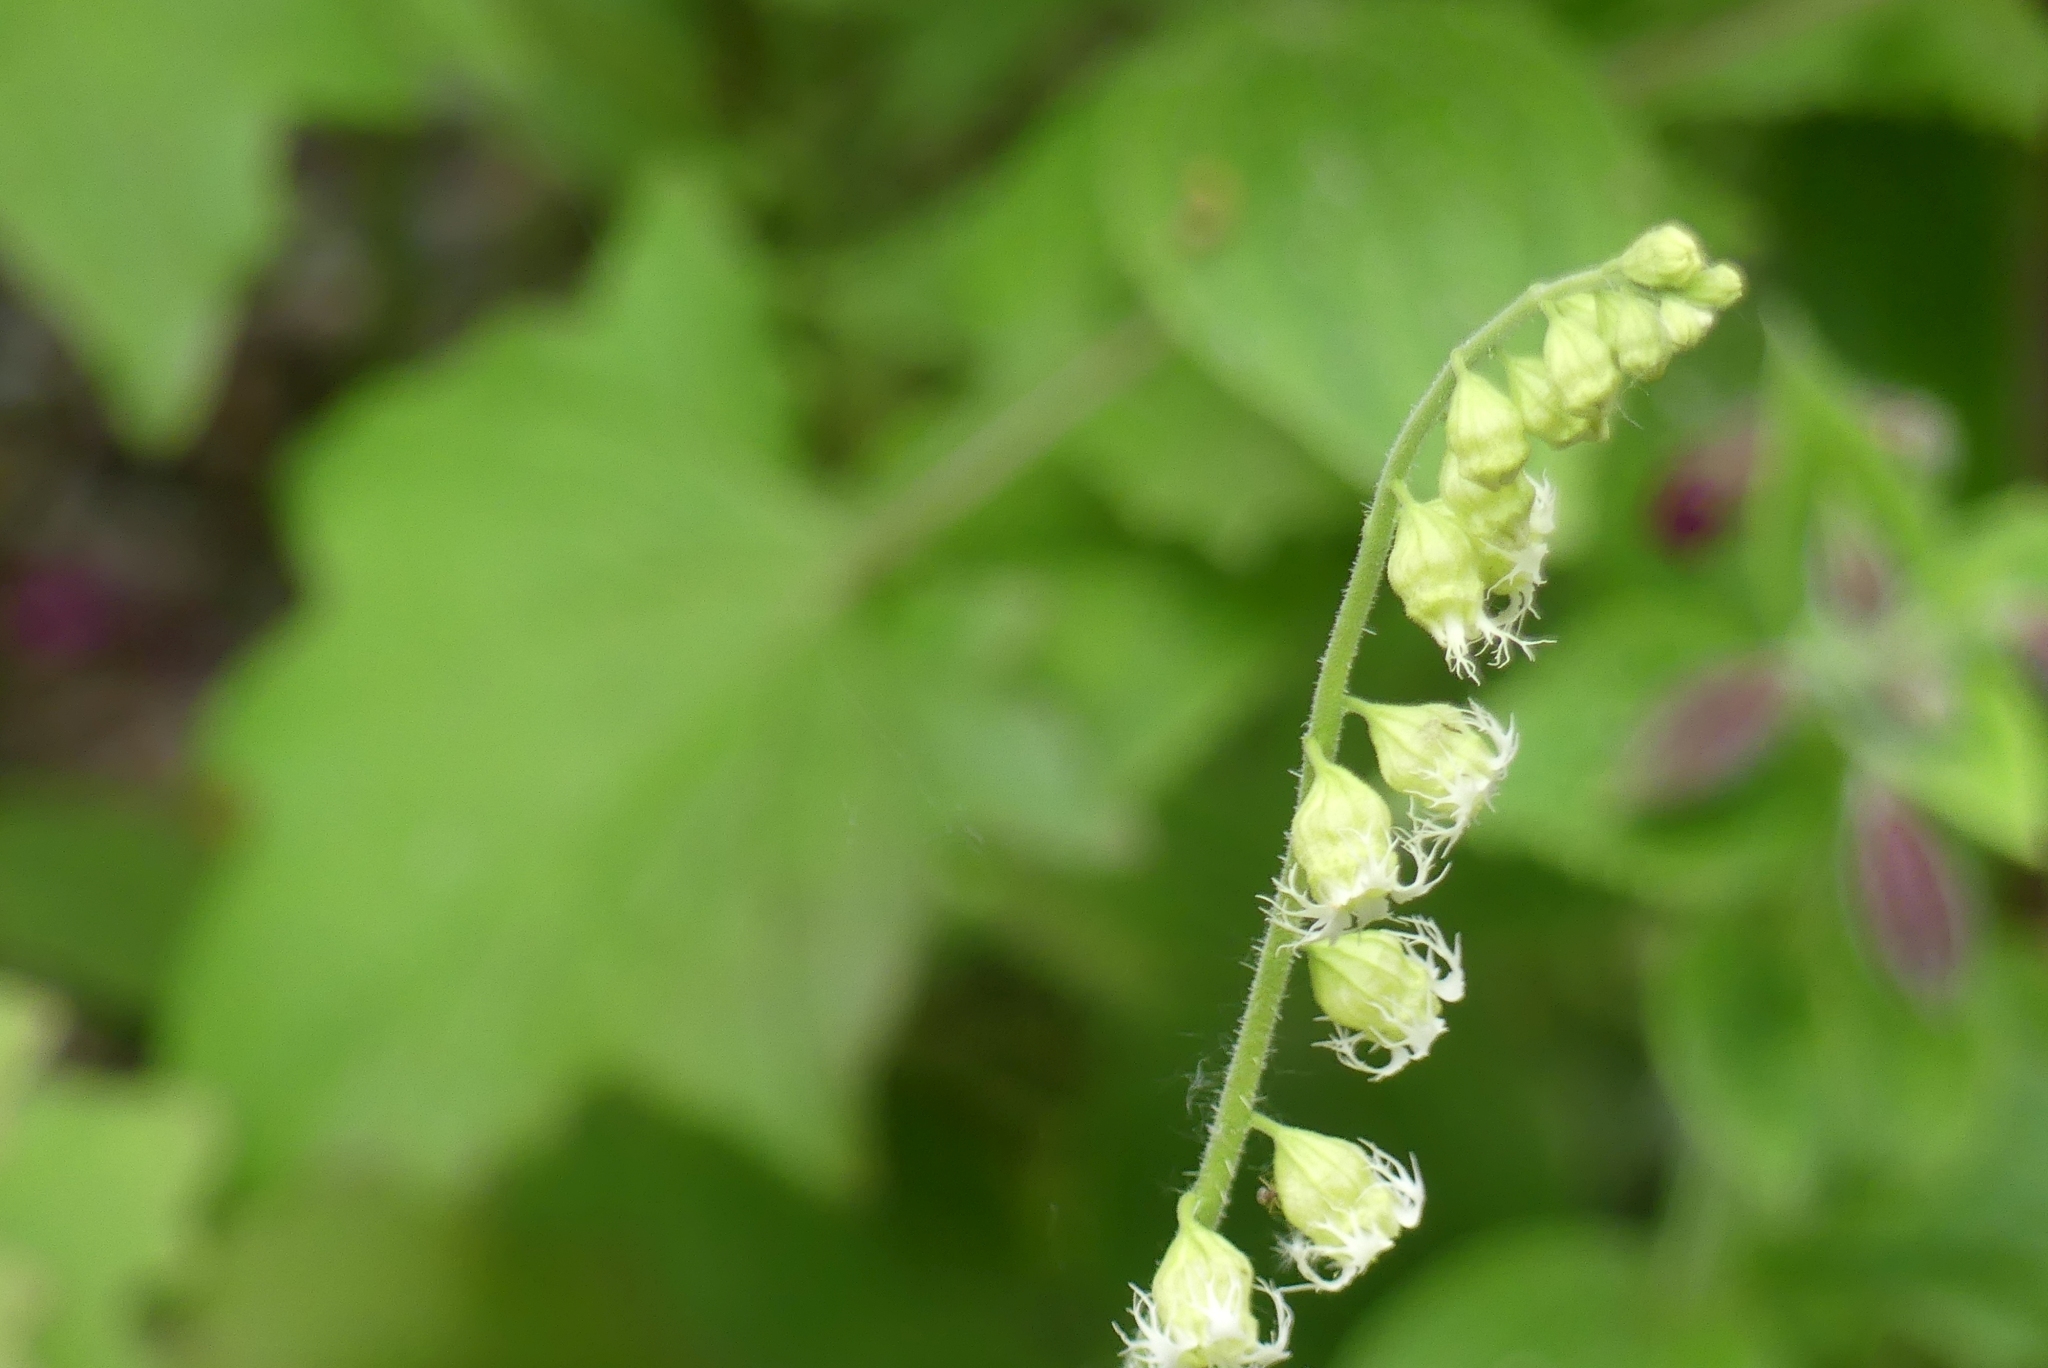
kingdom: Plantae
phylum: Tracheophyta
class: Magnoliopsida
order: Saxifragales
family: Saxifragaceae
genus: Tellima
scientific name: Tellima grandiflora
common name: Fringecups
